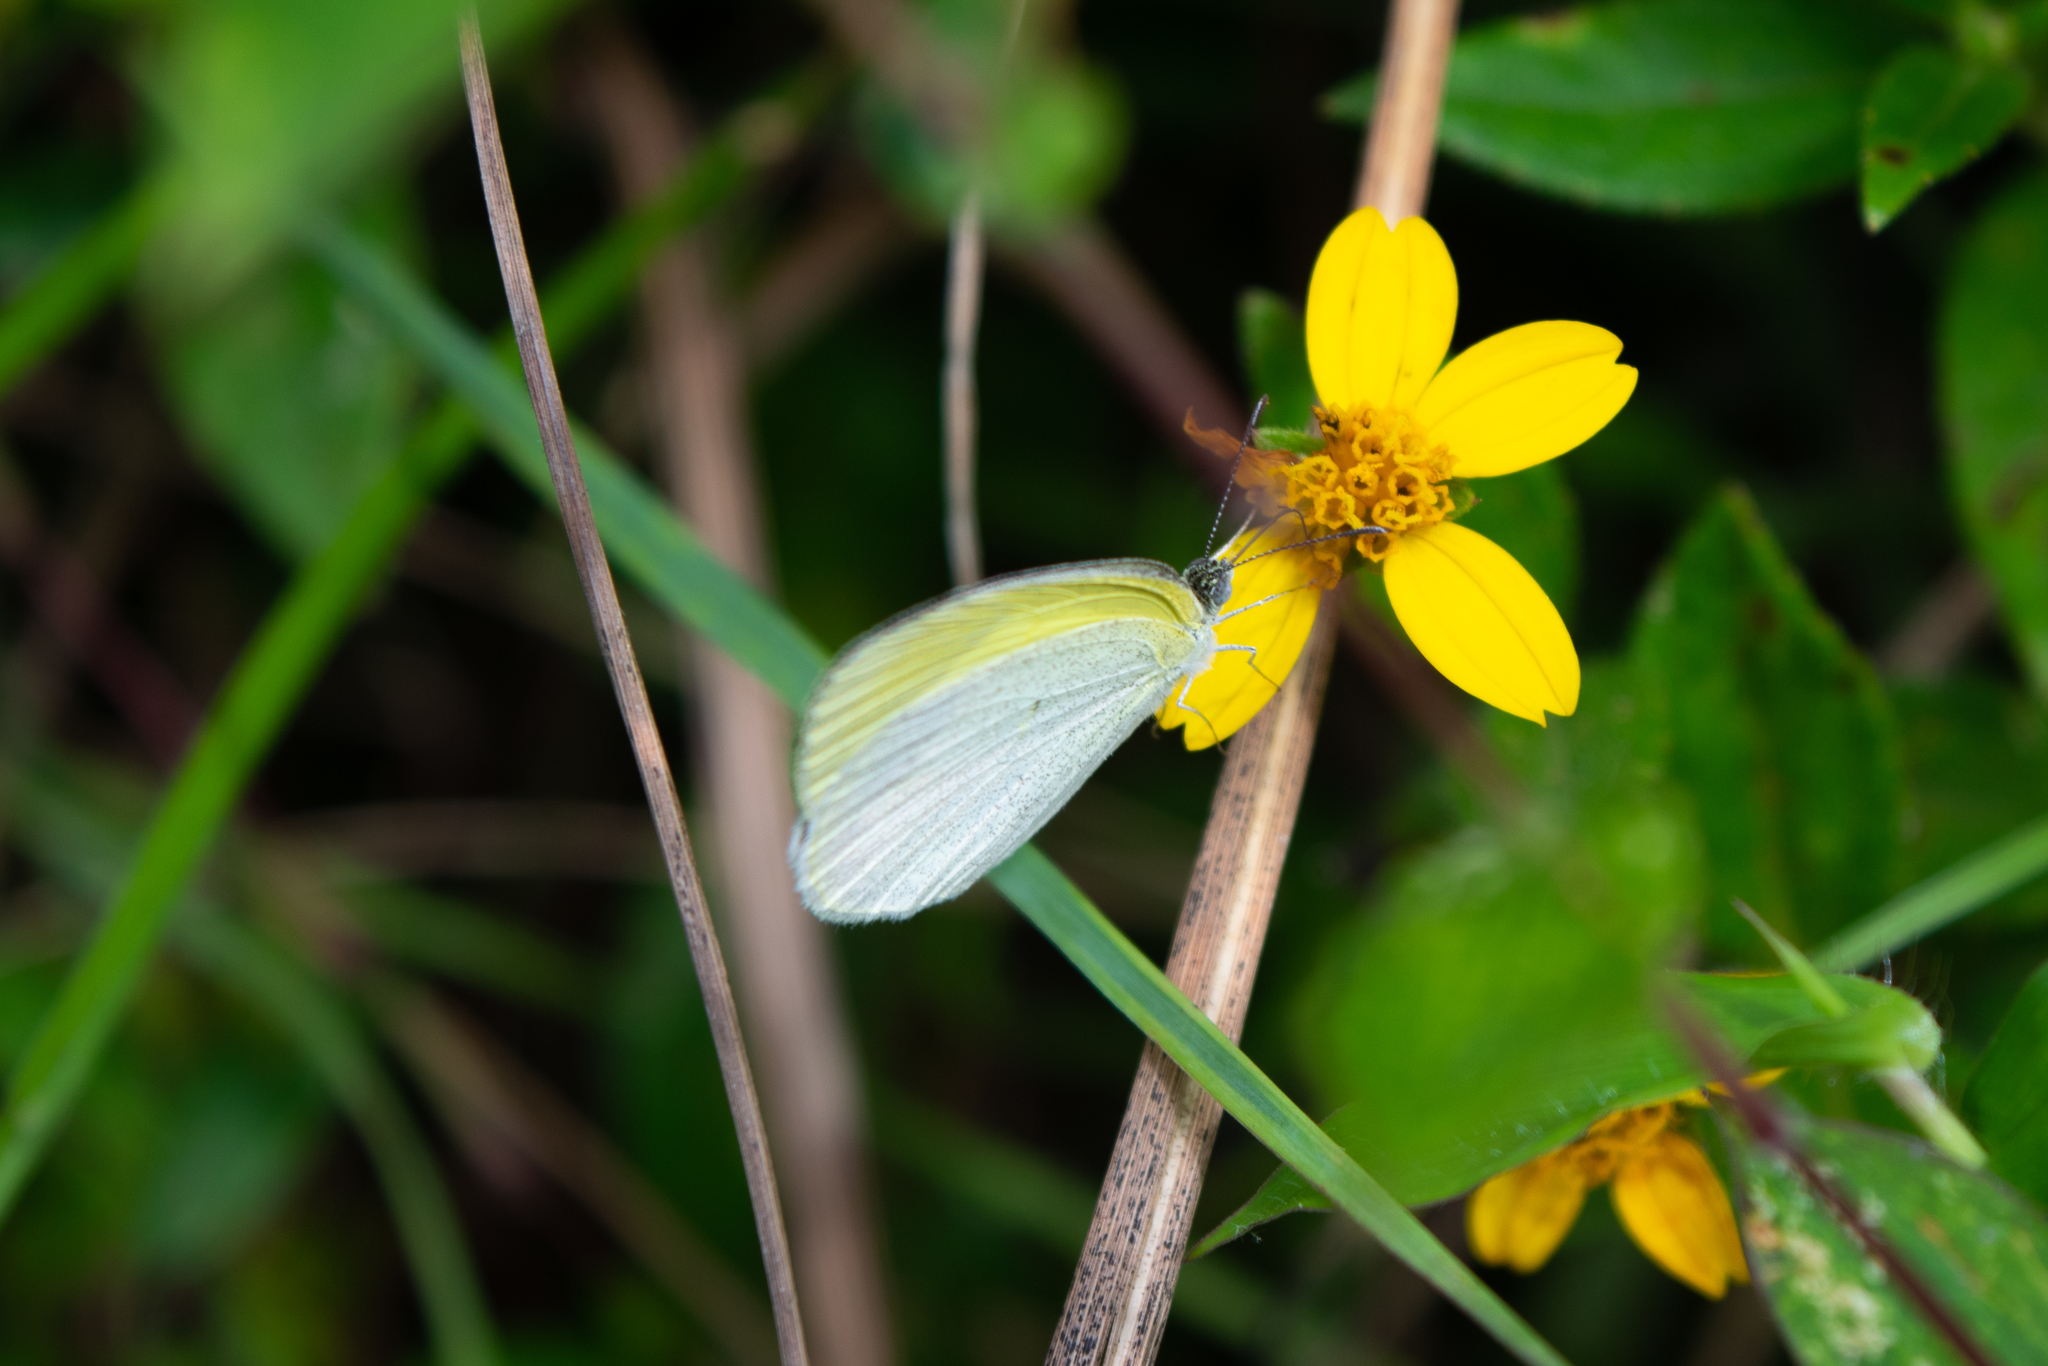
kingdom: Animalia
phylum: Arthropoda
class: Insecta
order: Lepidoptera
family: Pieridae
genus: Eurema
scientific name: Eurema daira
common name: Barred sulphur
